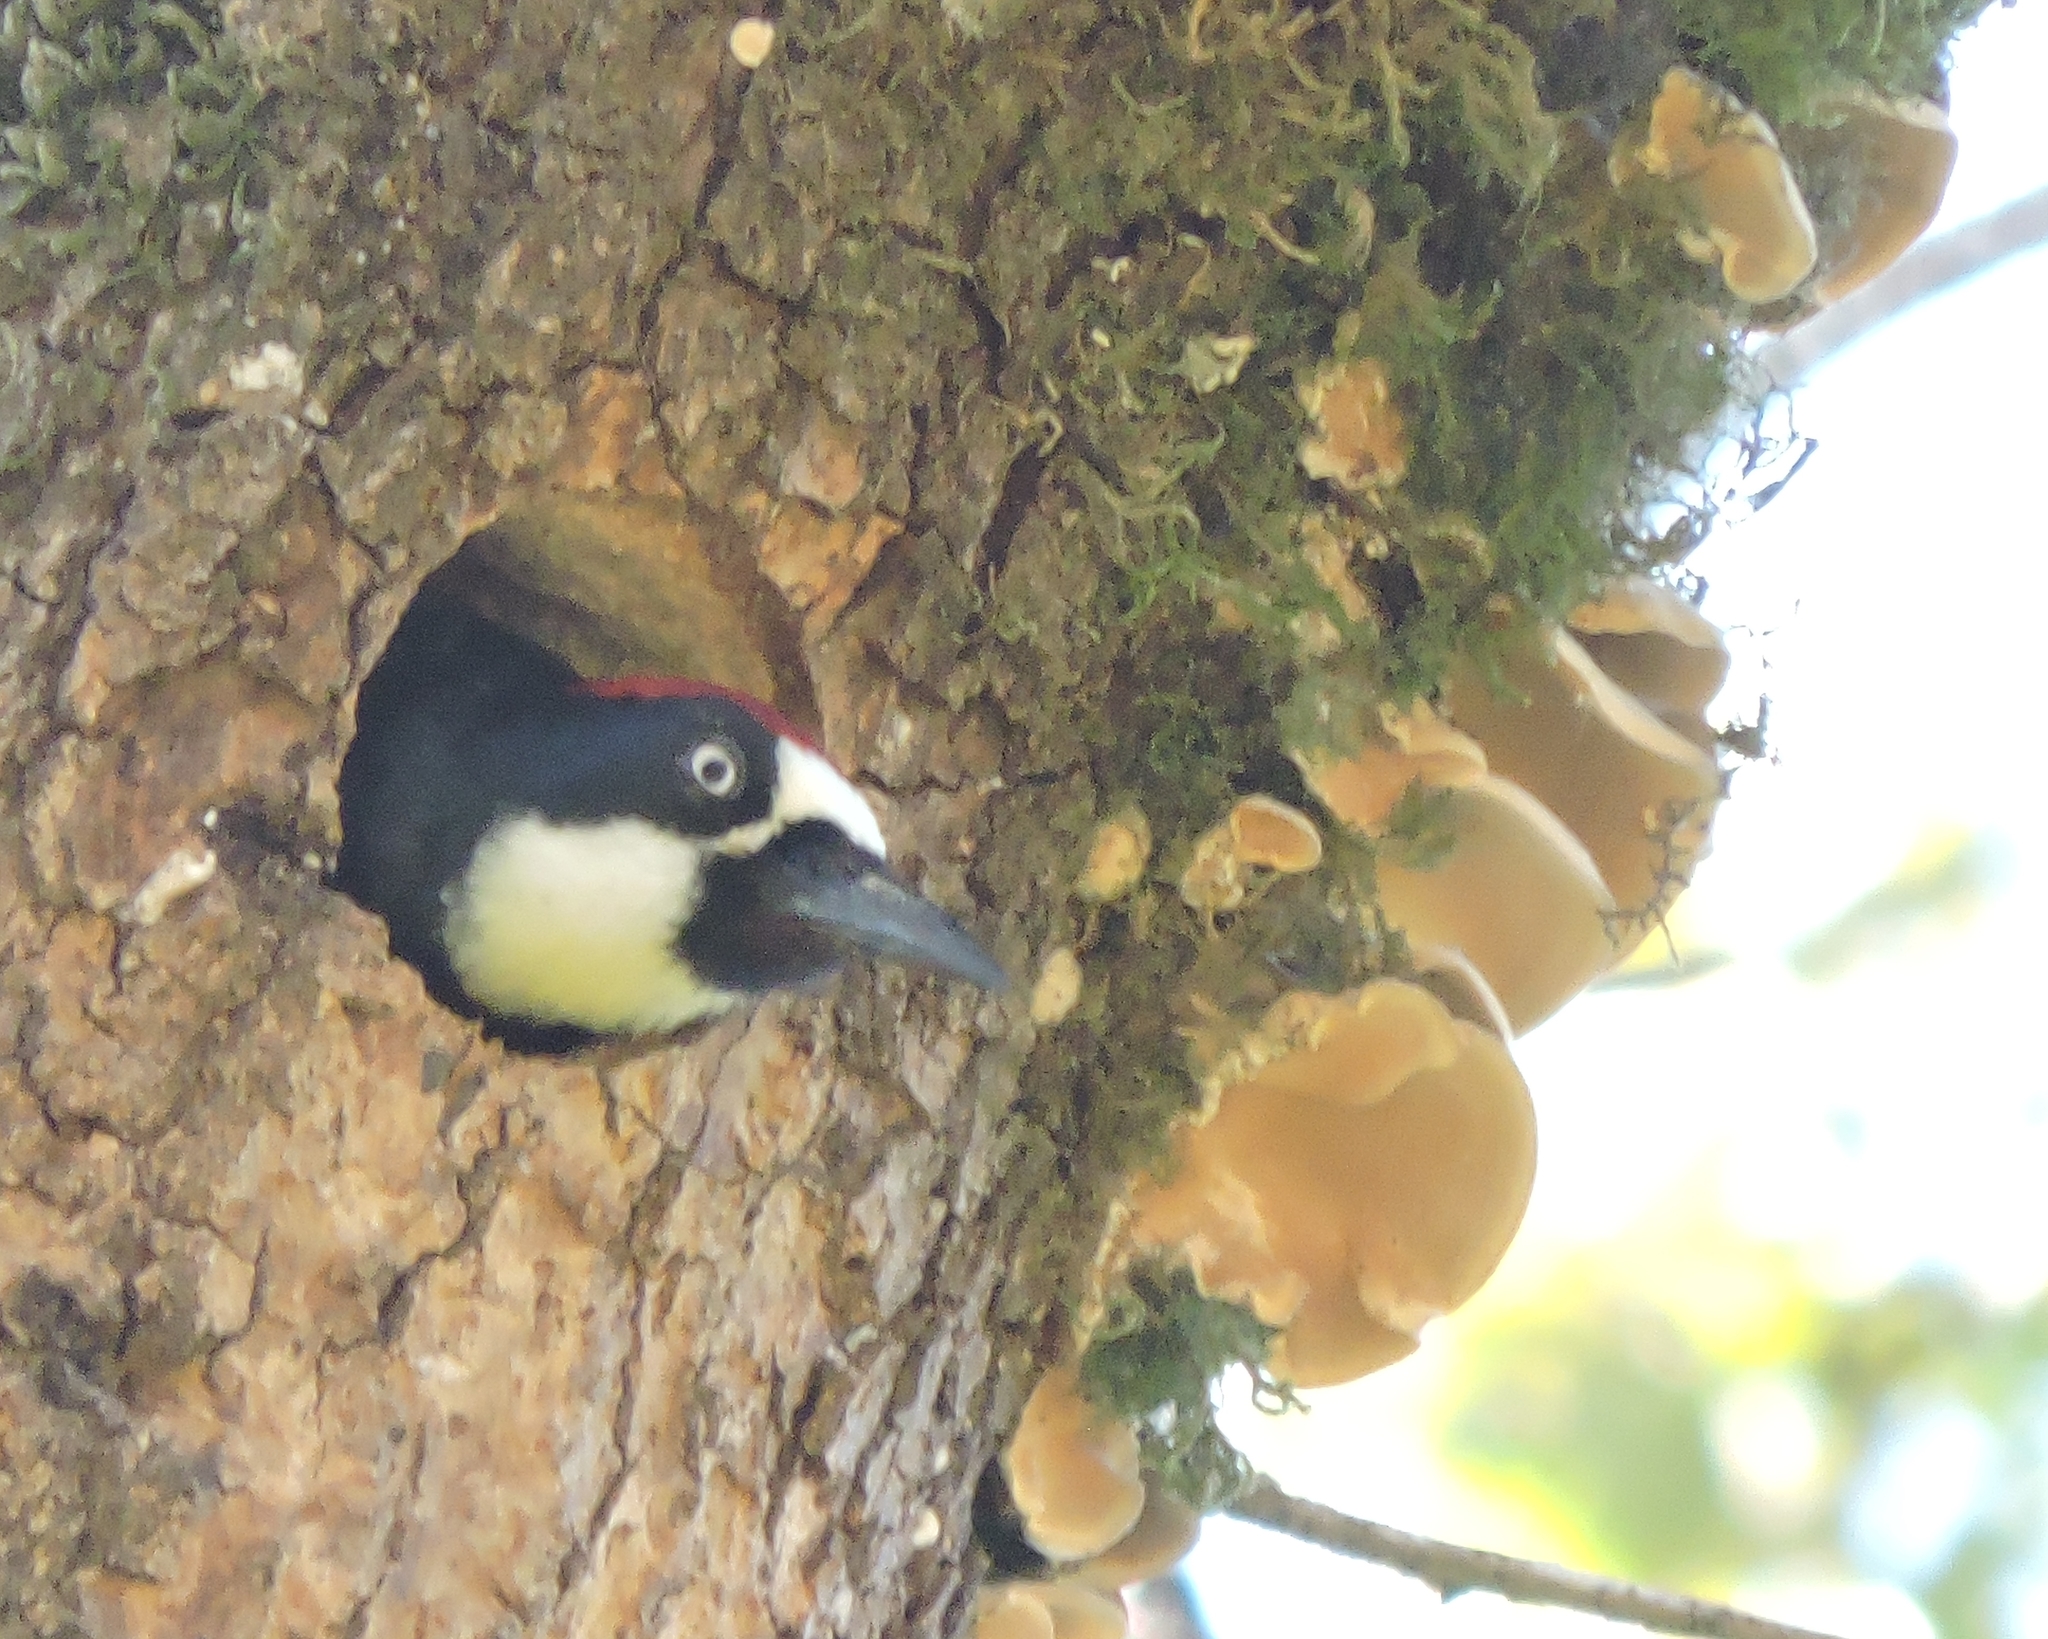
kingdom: Animalia
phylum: Chordata
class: Aves
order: Piciformes
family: Picidae
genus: Melanerpes
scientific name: Melanerpes formicivorus
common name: Acorn woodpecker
